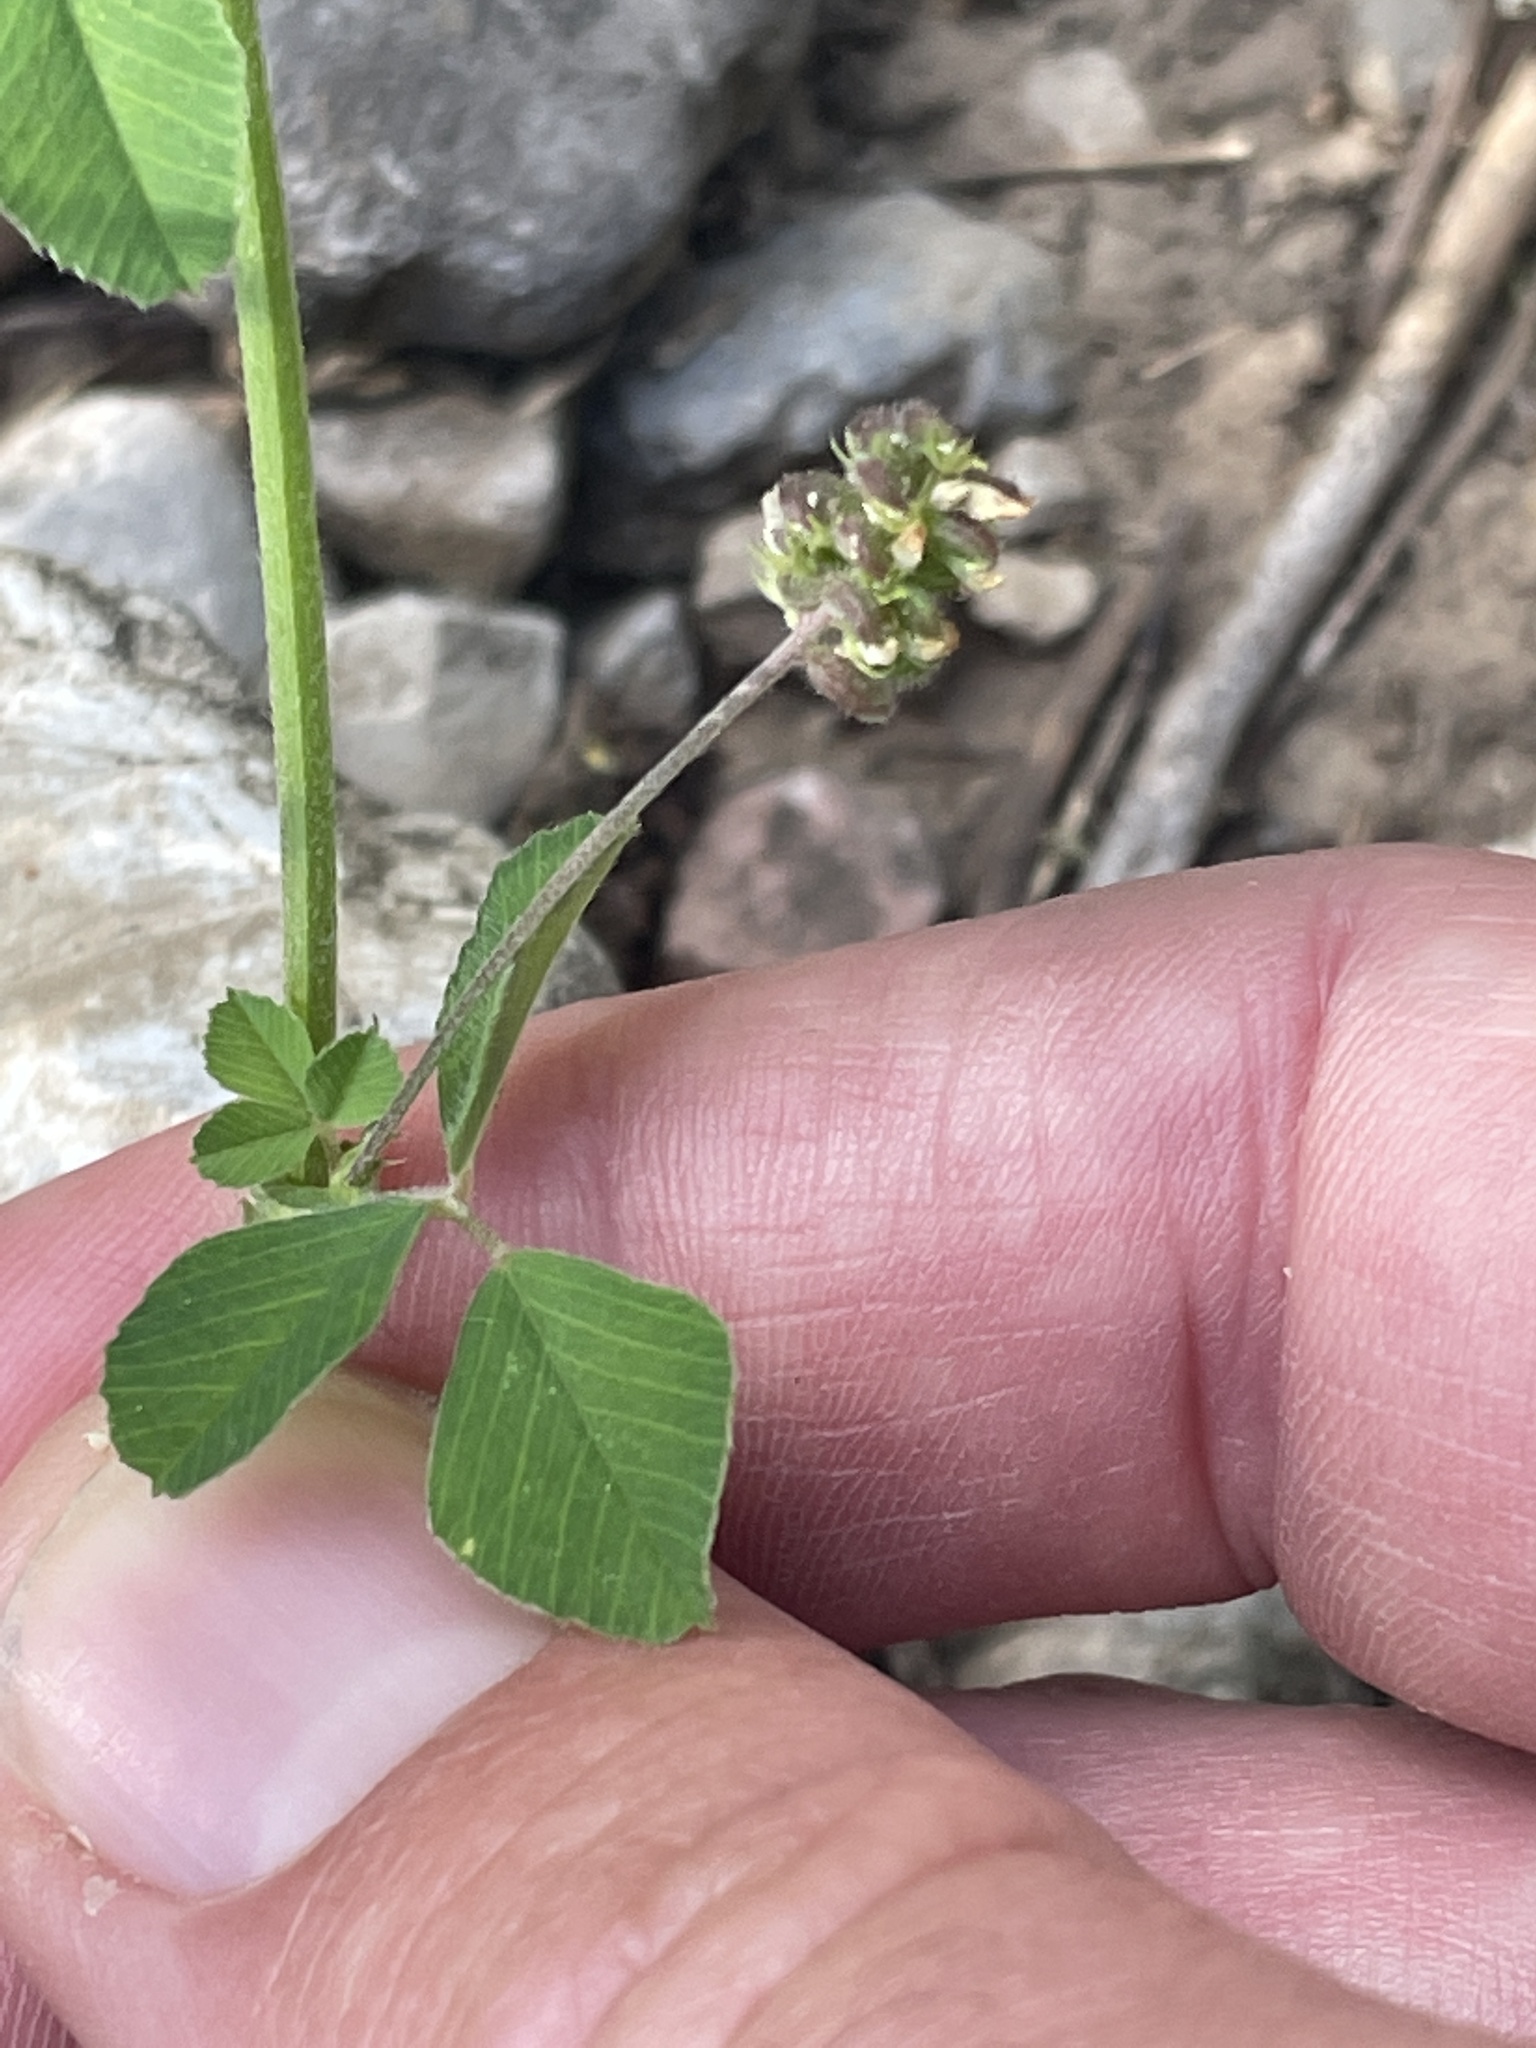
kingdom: Plantae
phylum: Tracheophyta
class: Magnoliopsida
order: Fabales
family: Fabaceae
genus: Medicago
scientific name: Medicago lupulina
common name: Black medick
